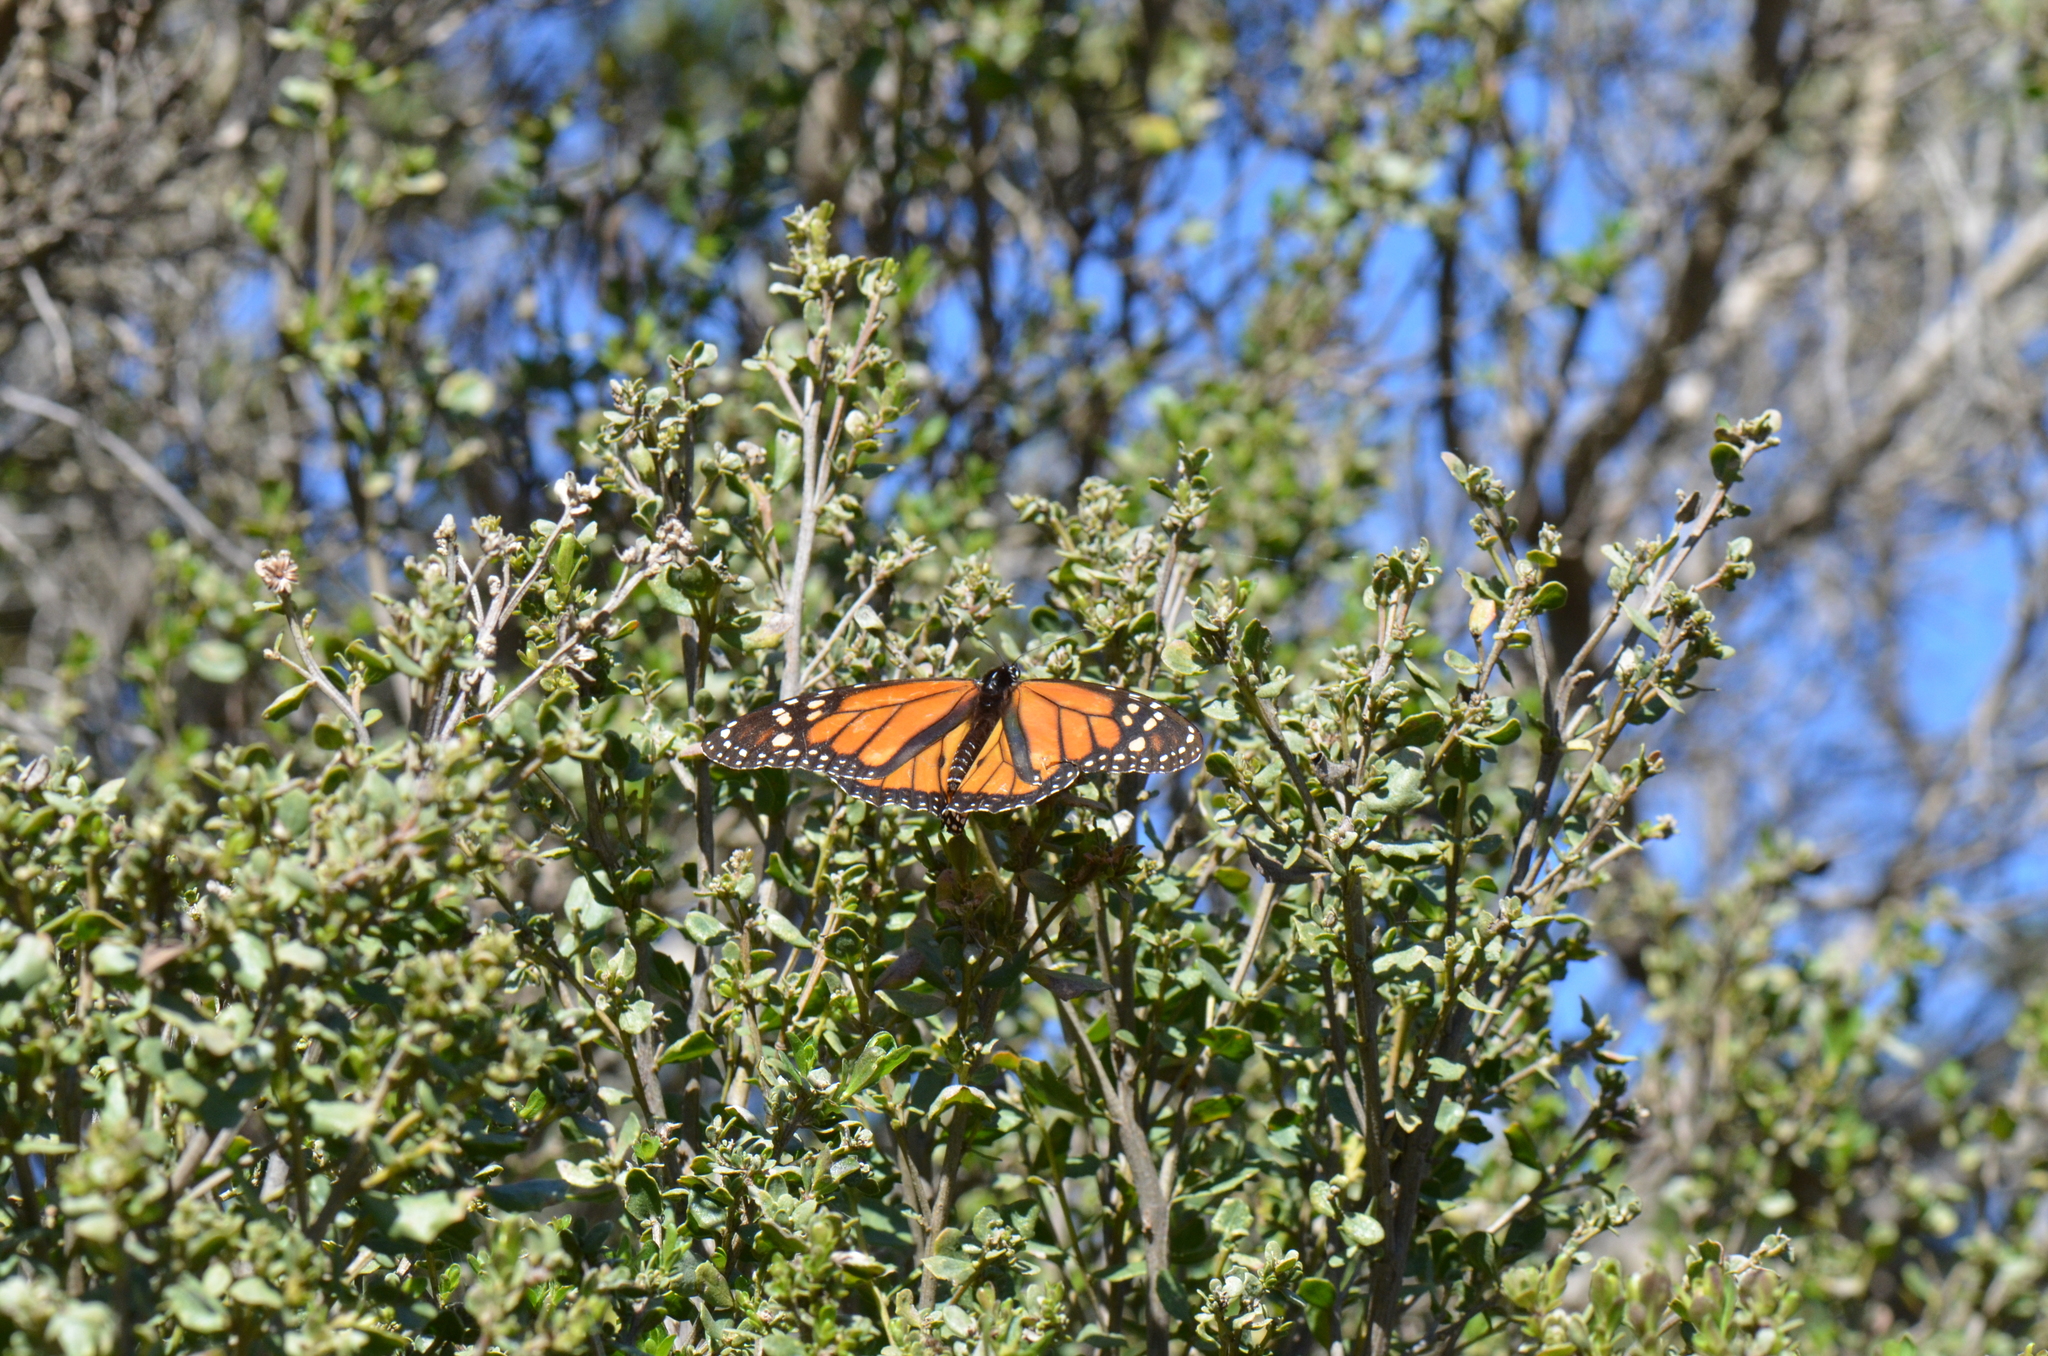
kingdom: Animalia
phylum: Arthropoda
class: Insecta
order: Lepidoptera
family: Nymphalidae
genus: Danaus
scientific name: Danaus plexippus
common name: Monarch
